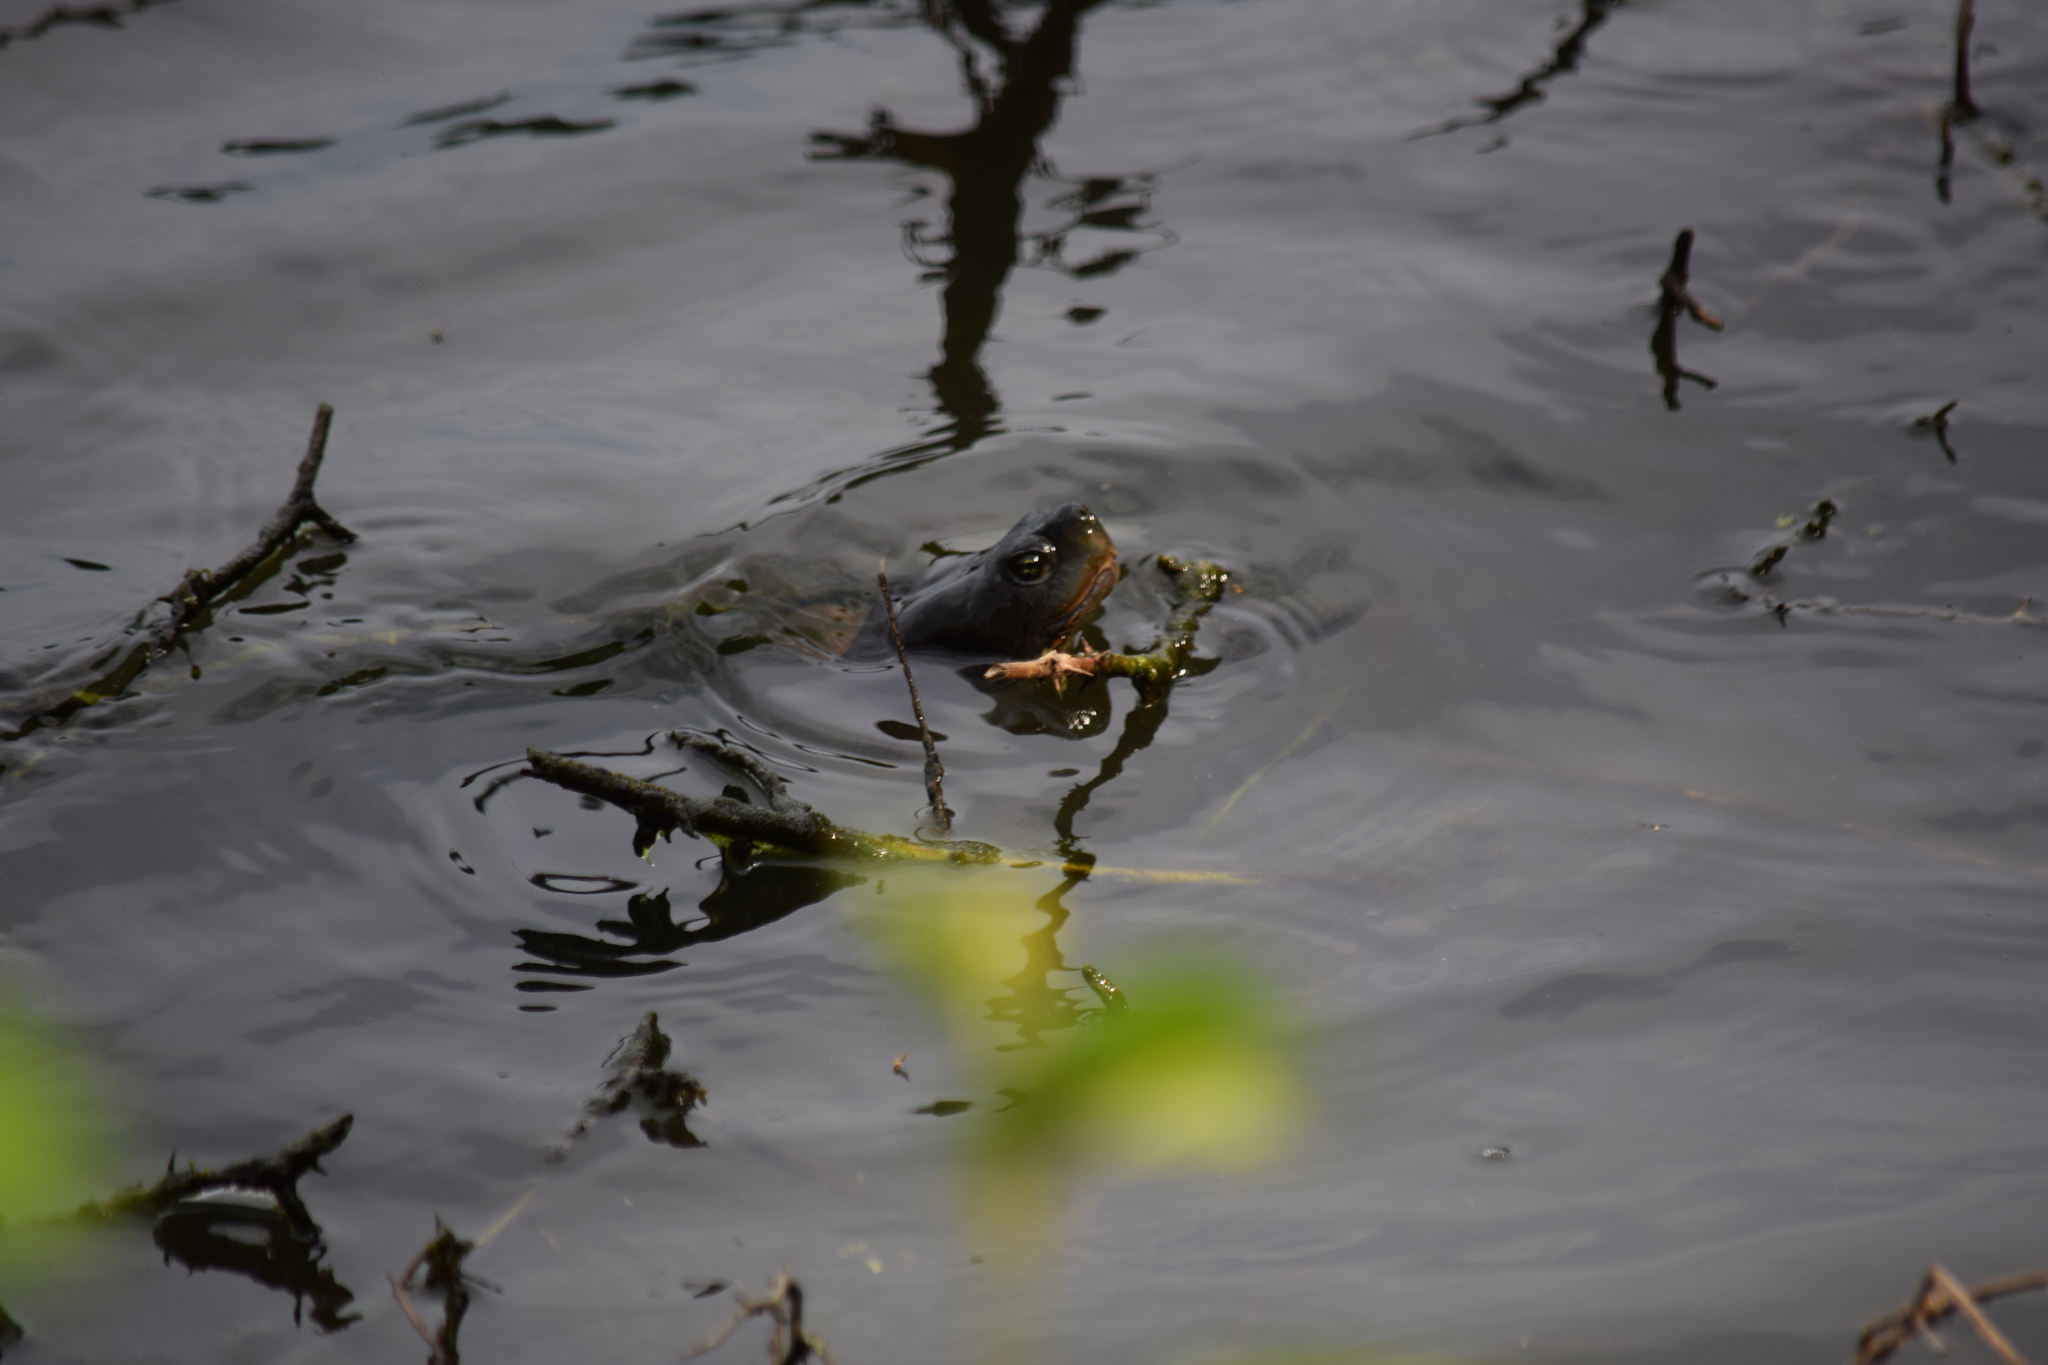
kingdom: Animalia
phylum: Chordata
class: Testudines
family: Emydidae
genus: Pseudemys
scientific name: Pseudemys rubriventris
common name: American red-bellied turtle
